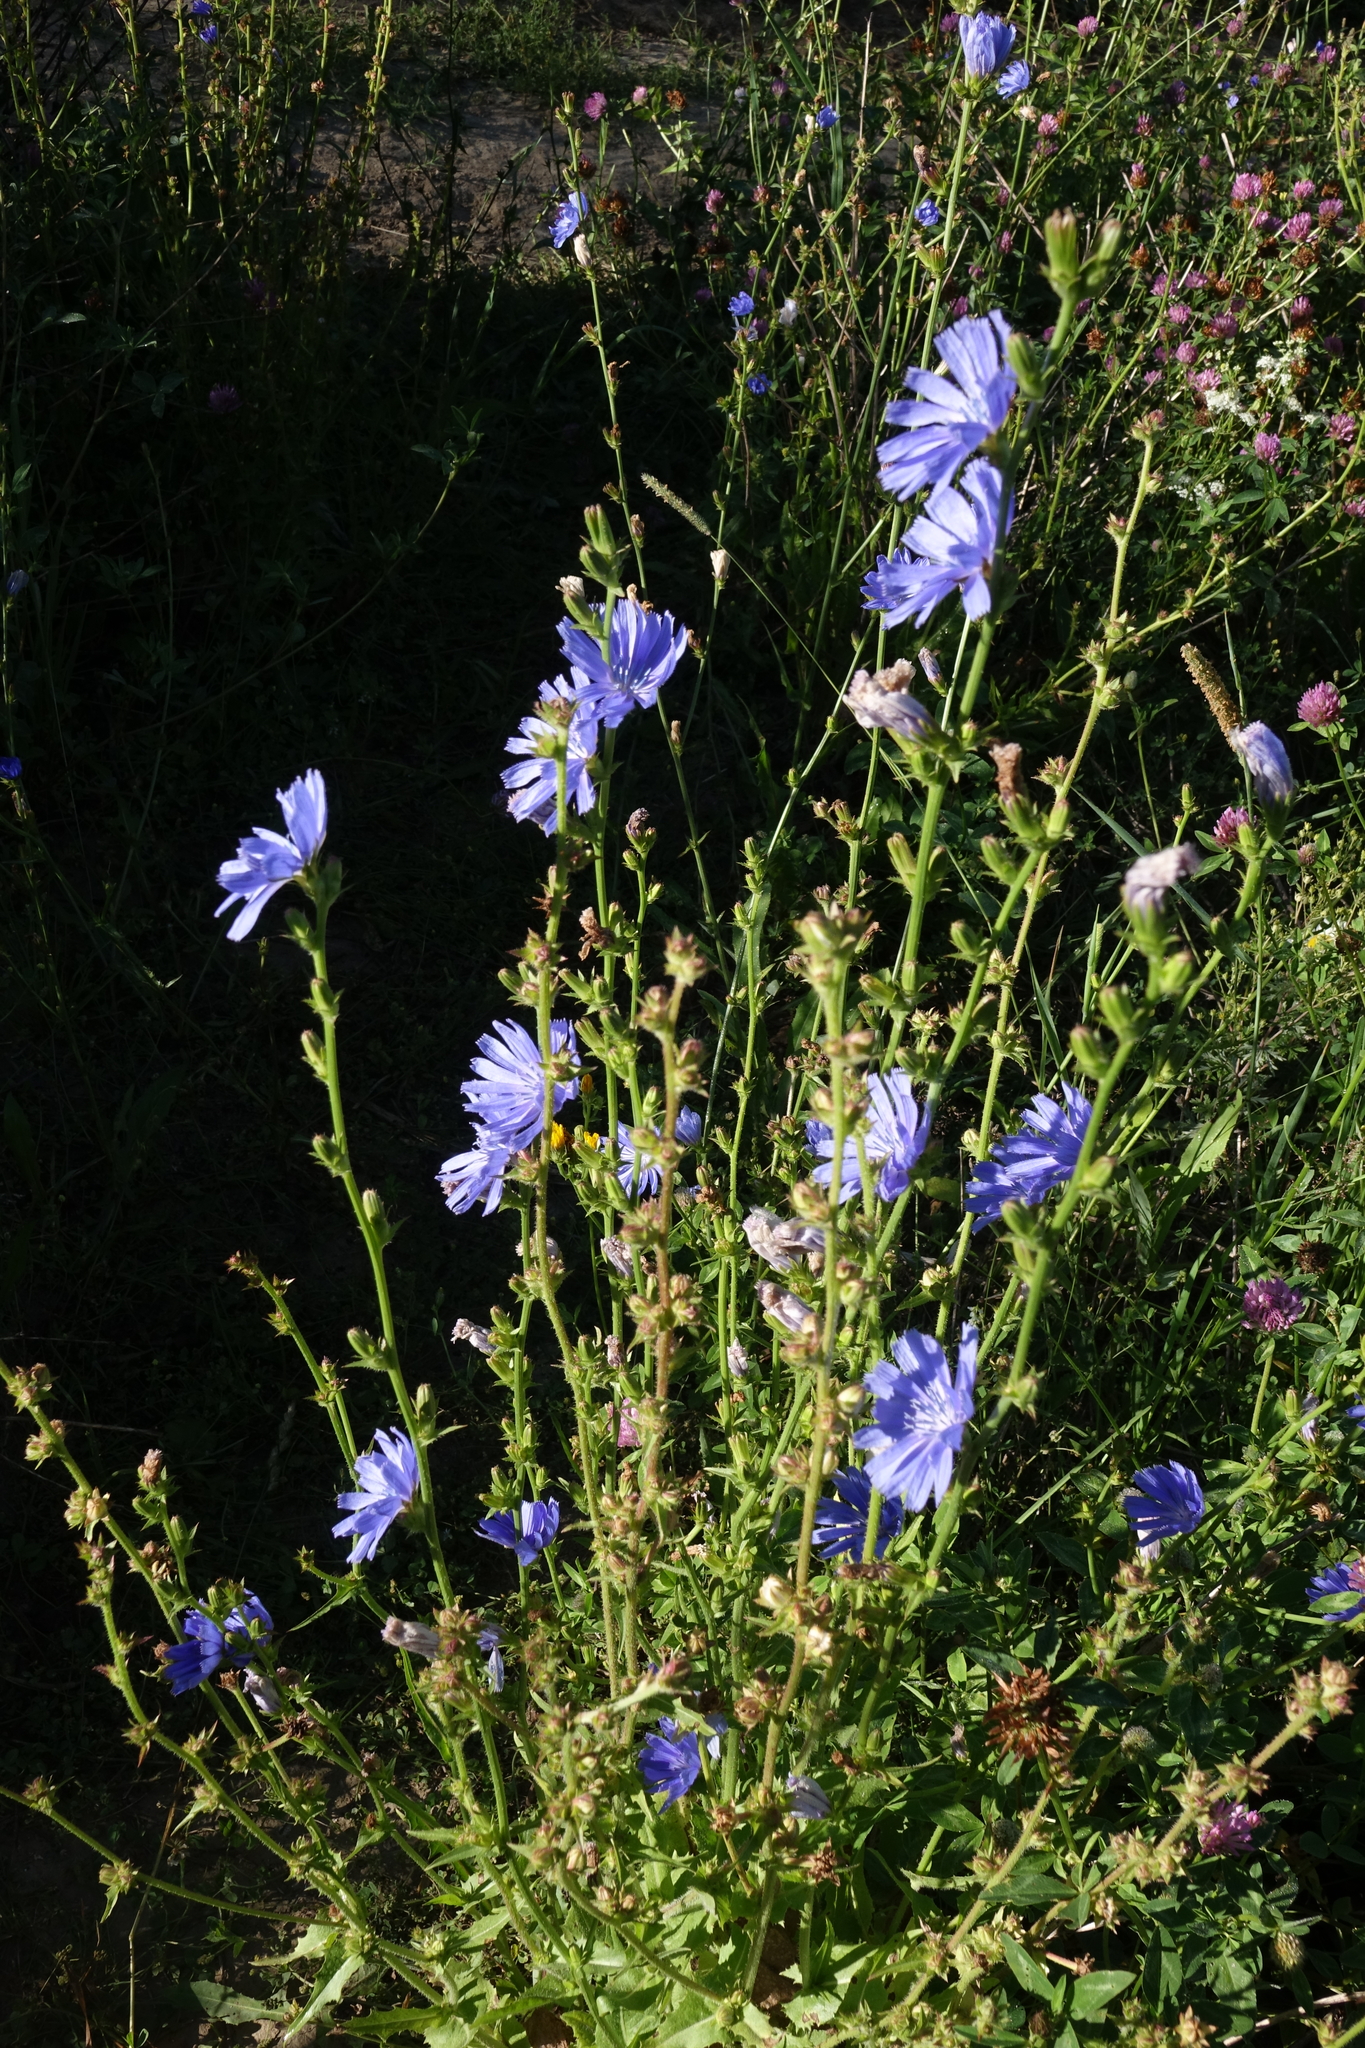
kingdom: Plantae
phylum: Tracheophyta
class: Magnoliopsida
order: Asterales
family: Asteraceae
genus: Cichorium
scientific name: Cichorium intybus
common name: Chicory
